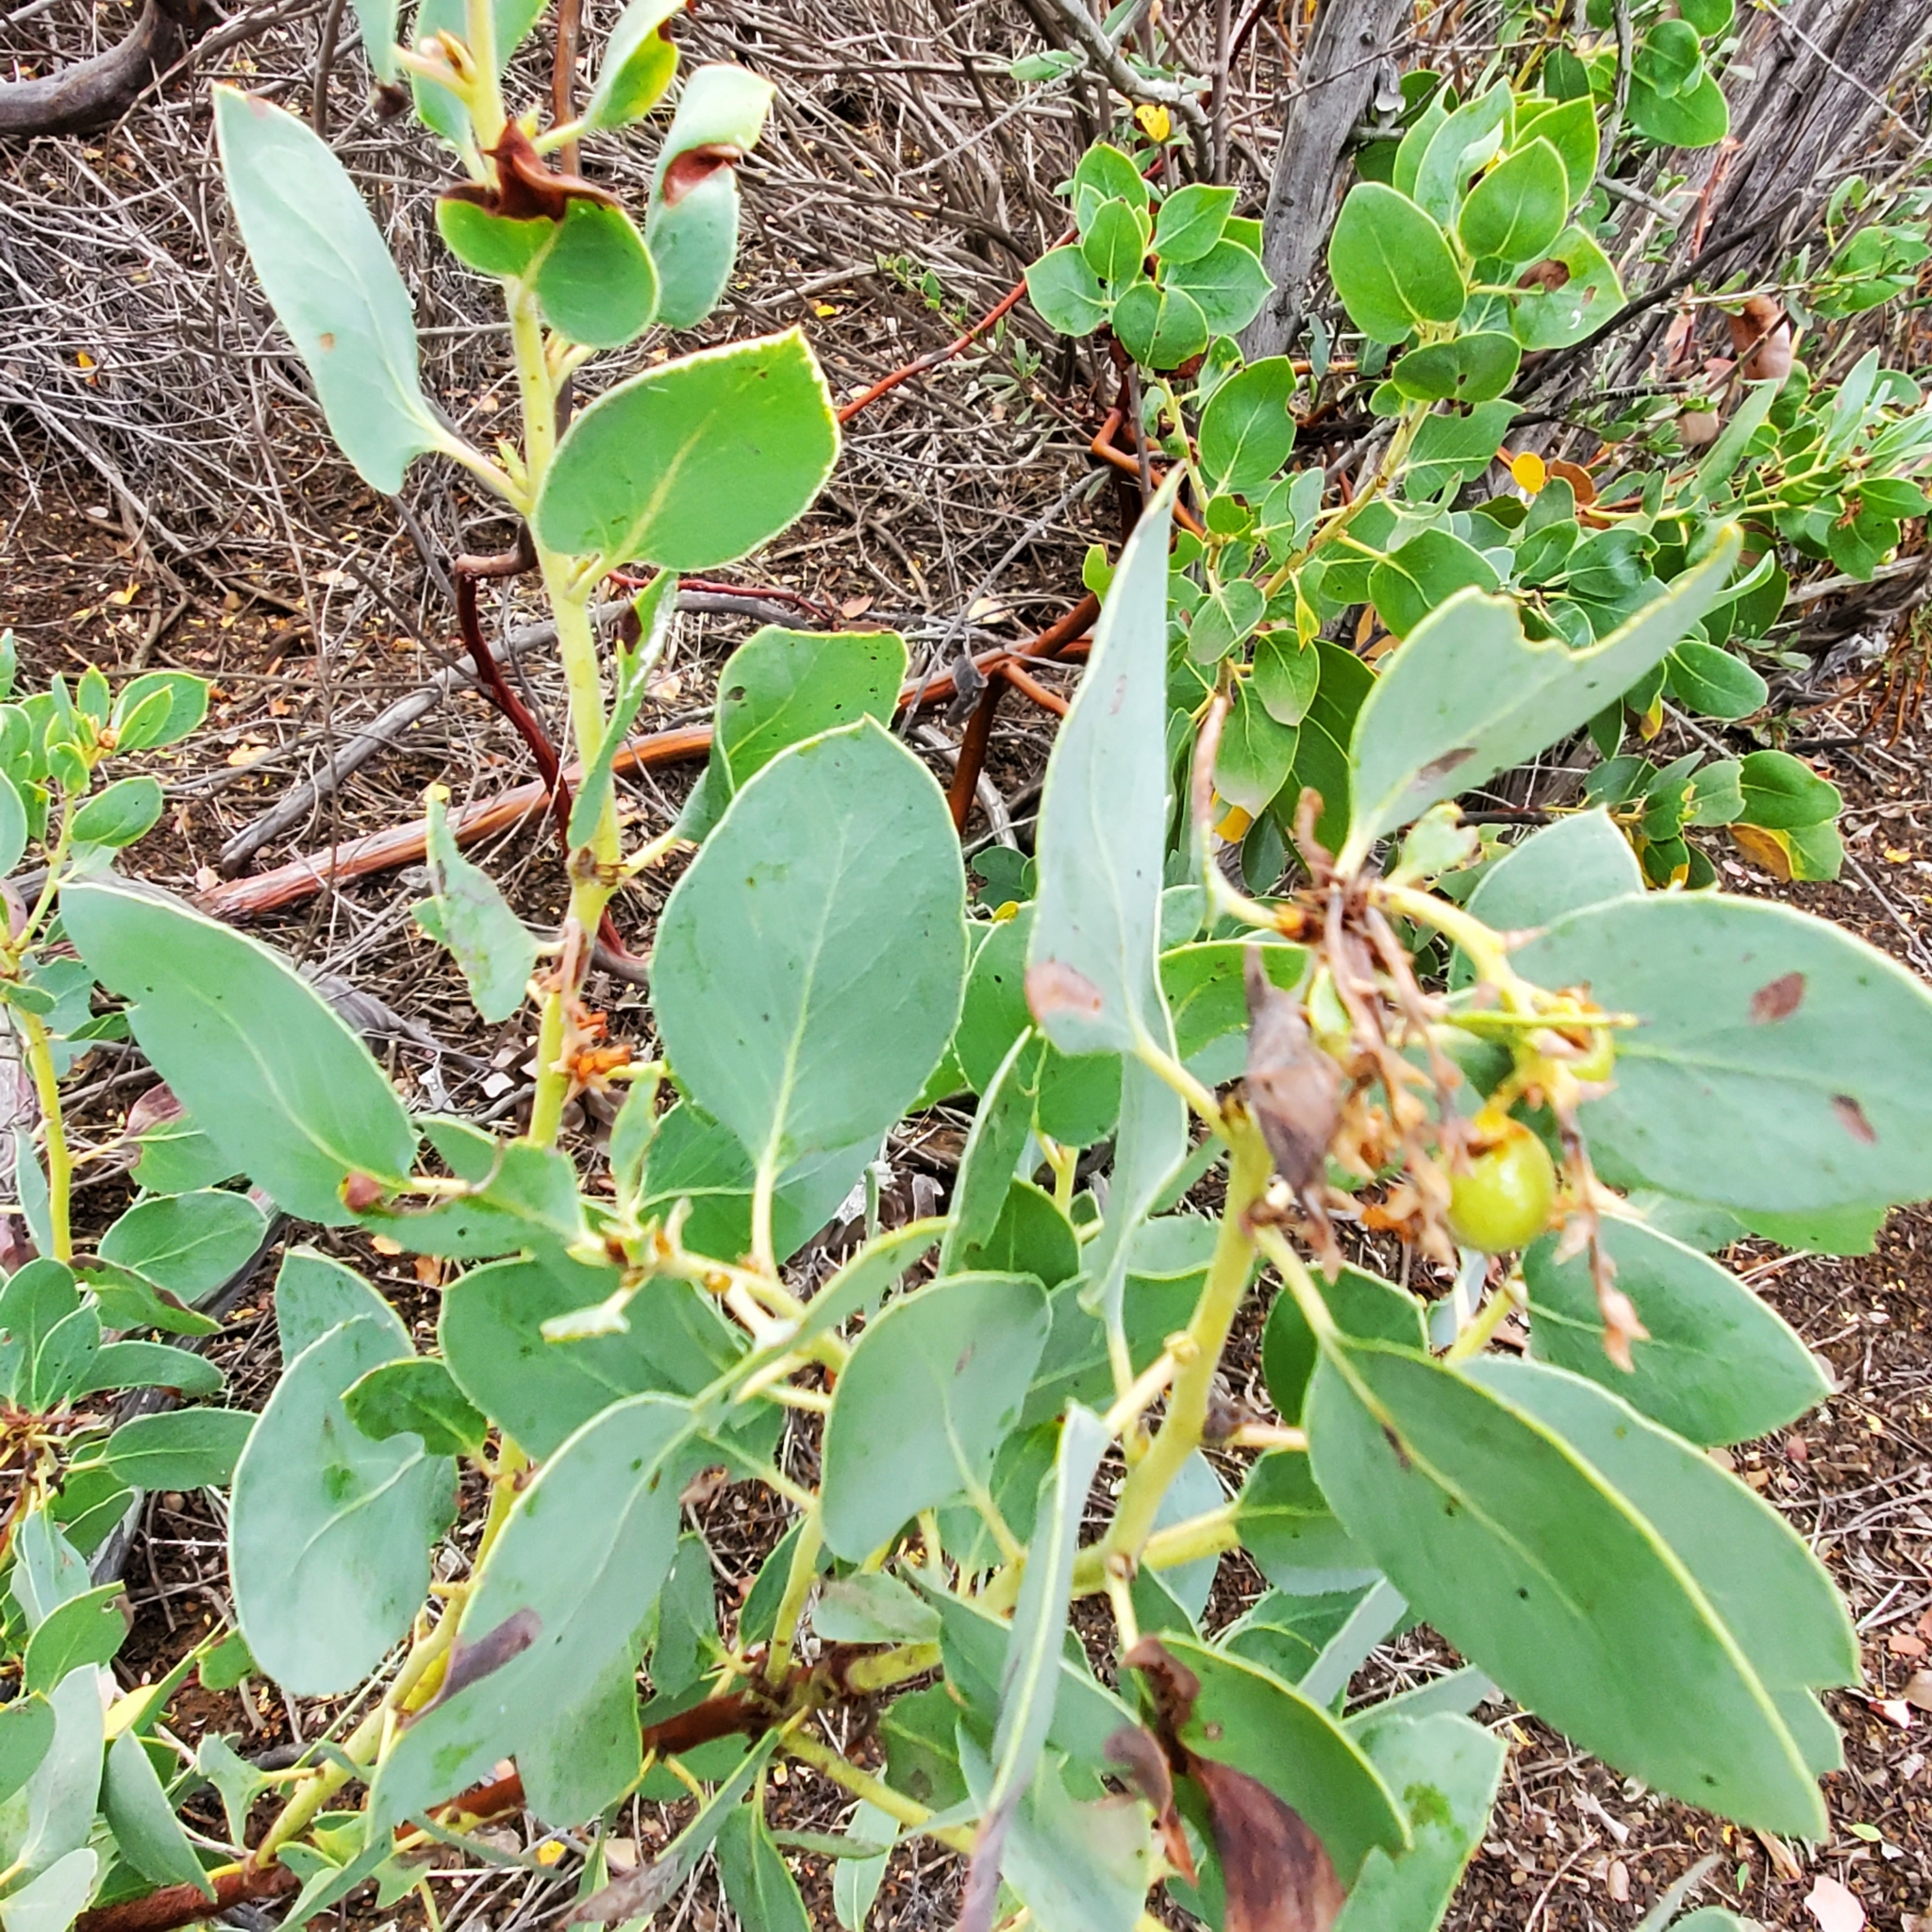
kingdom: Plantae
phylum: Tracheophyta
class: Magnoliopsida
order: Ericales
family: Ericaceae
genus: Arctostaphylos
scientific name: Arctostaphylos glauca
